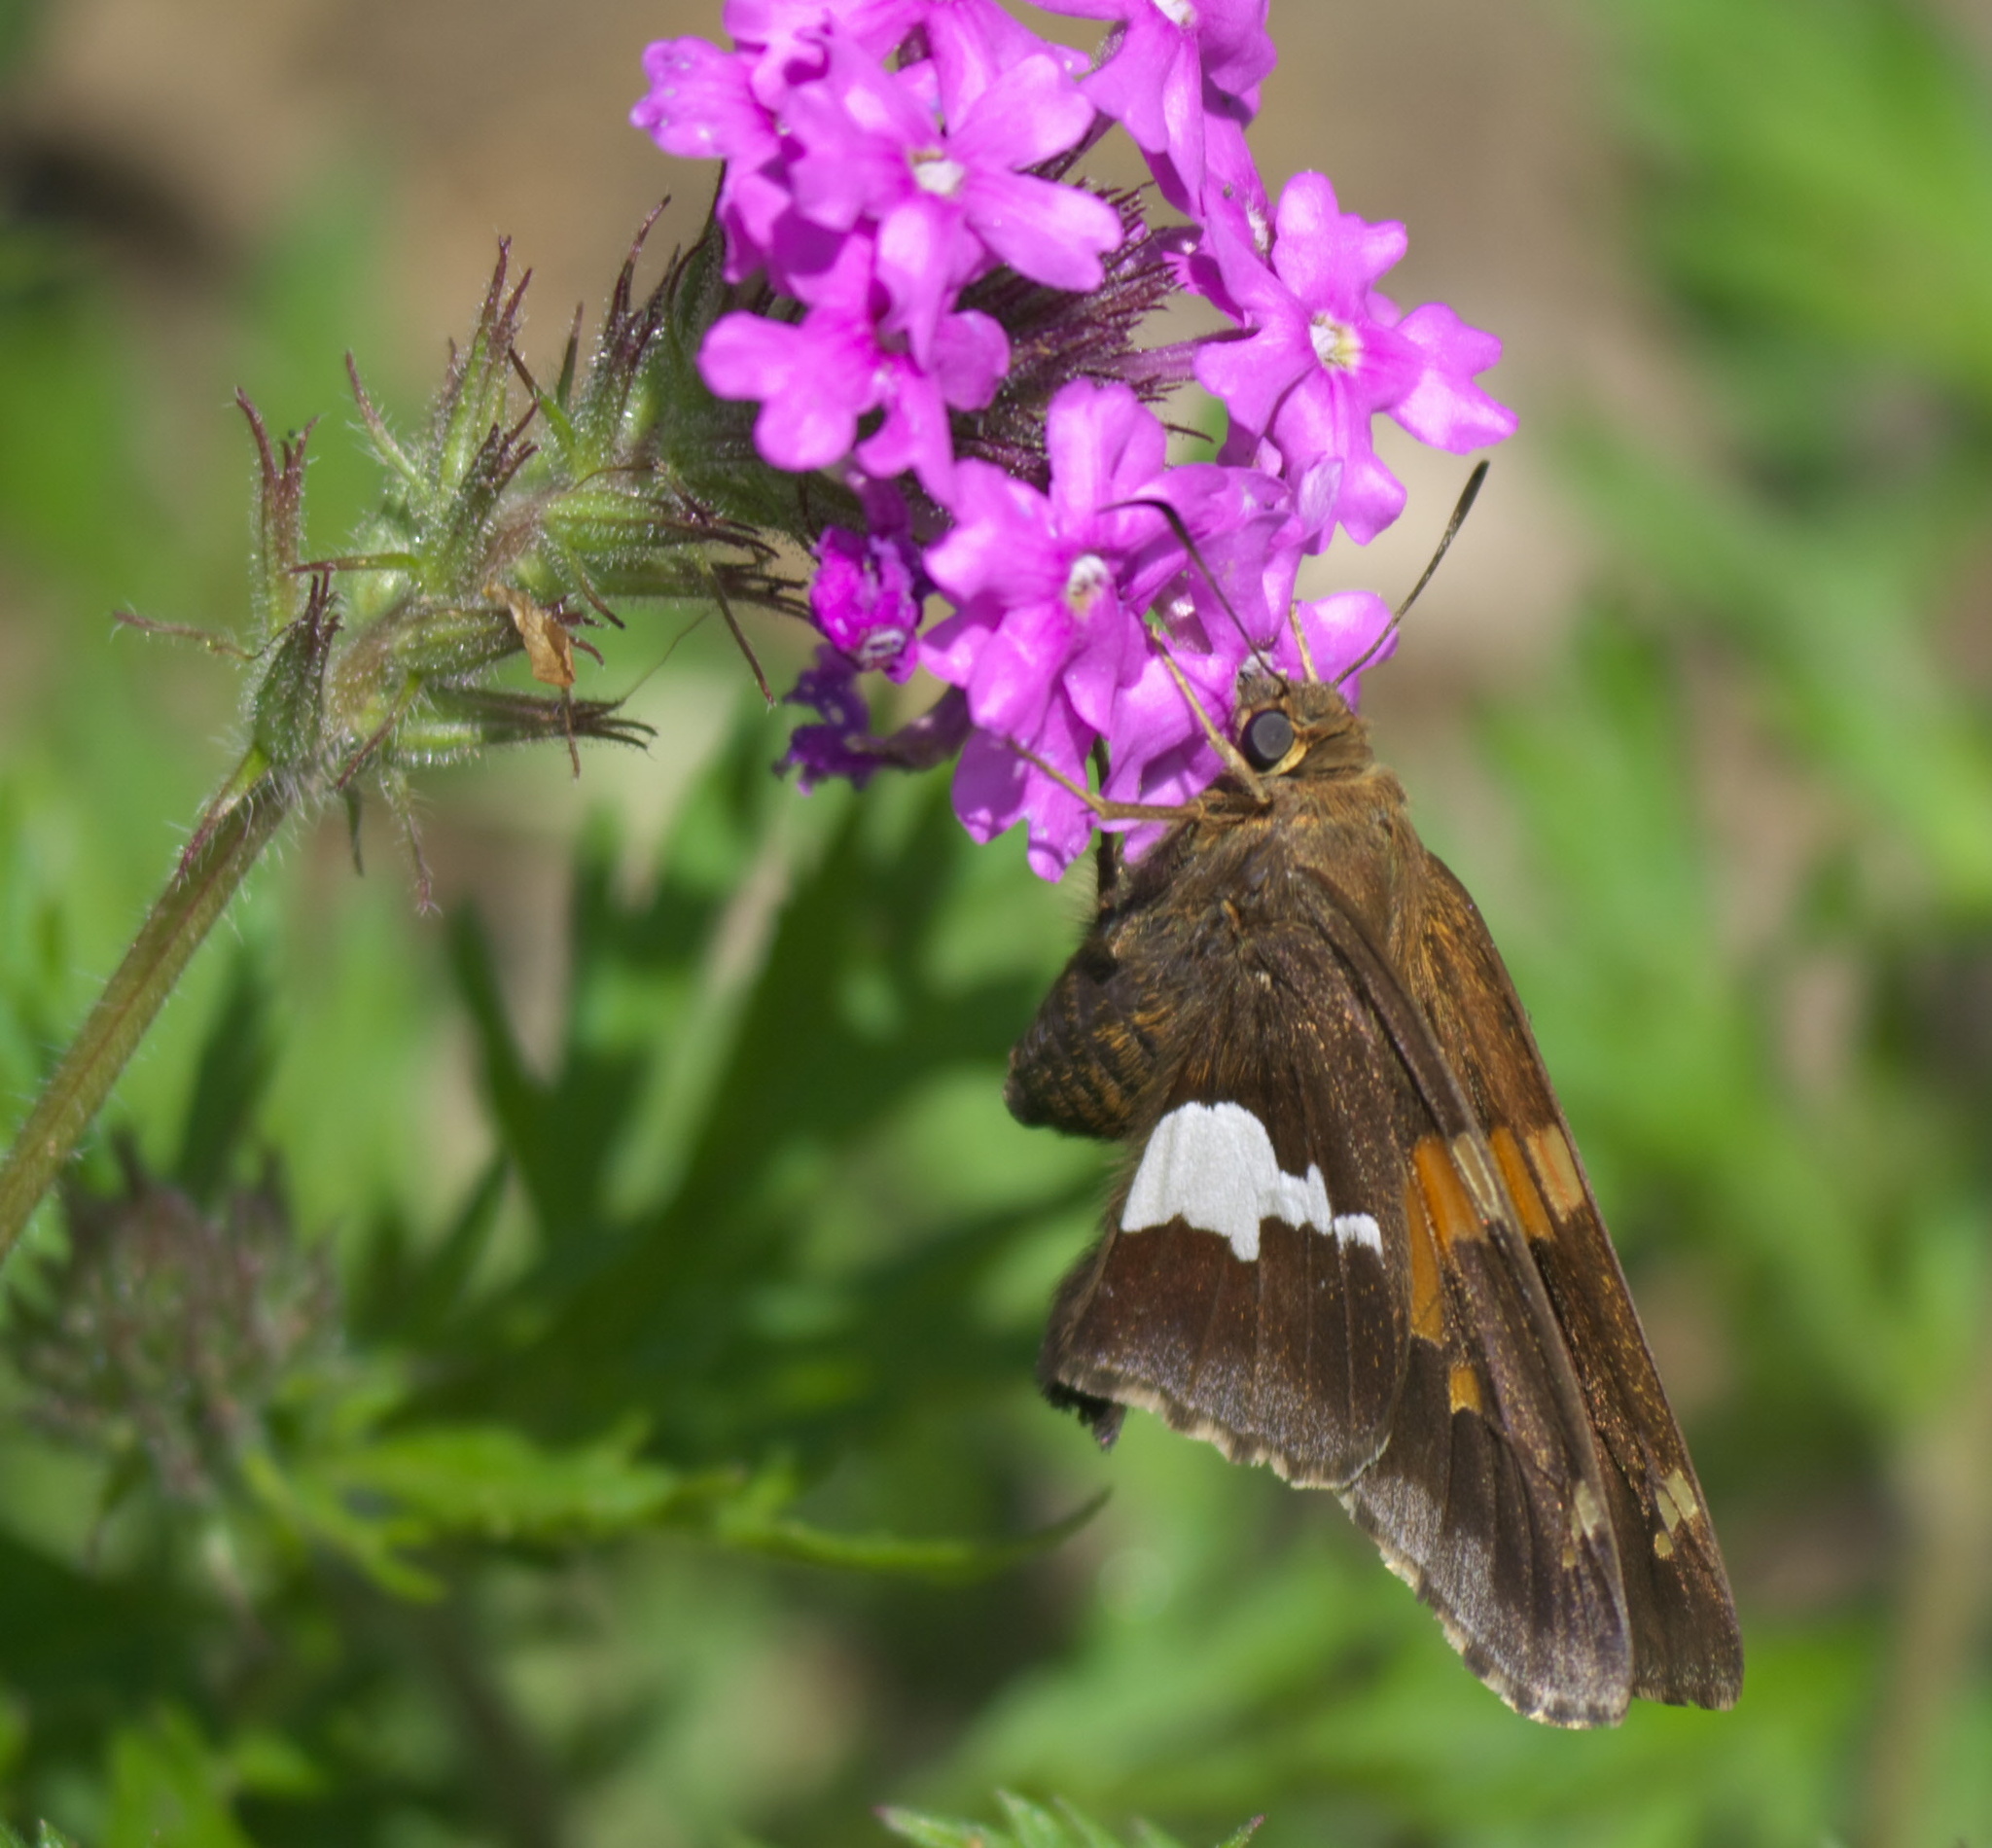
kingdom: Animalia
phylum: Arthropoda
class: Insecta
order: Lepidoptera
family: Hesperiidae
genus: Epargyreus
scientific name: Epargyreus clarus
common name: Silver-spotted skipper
